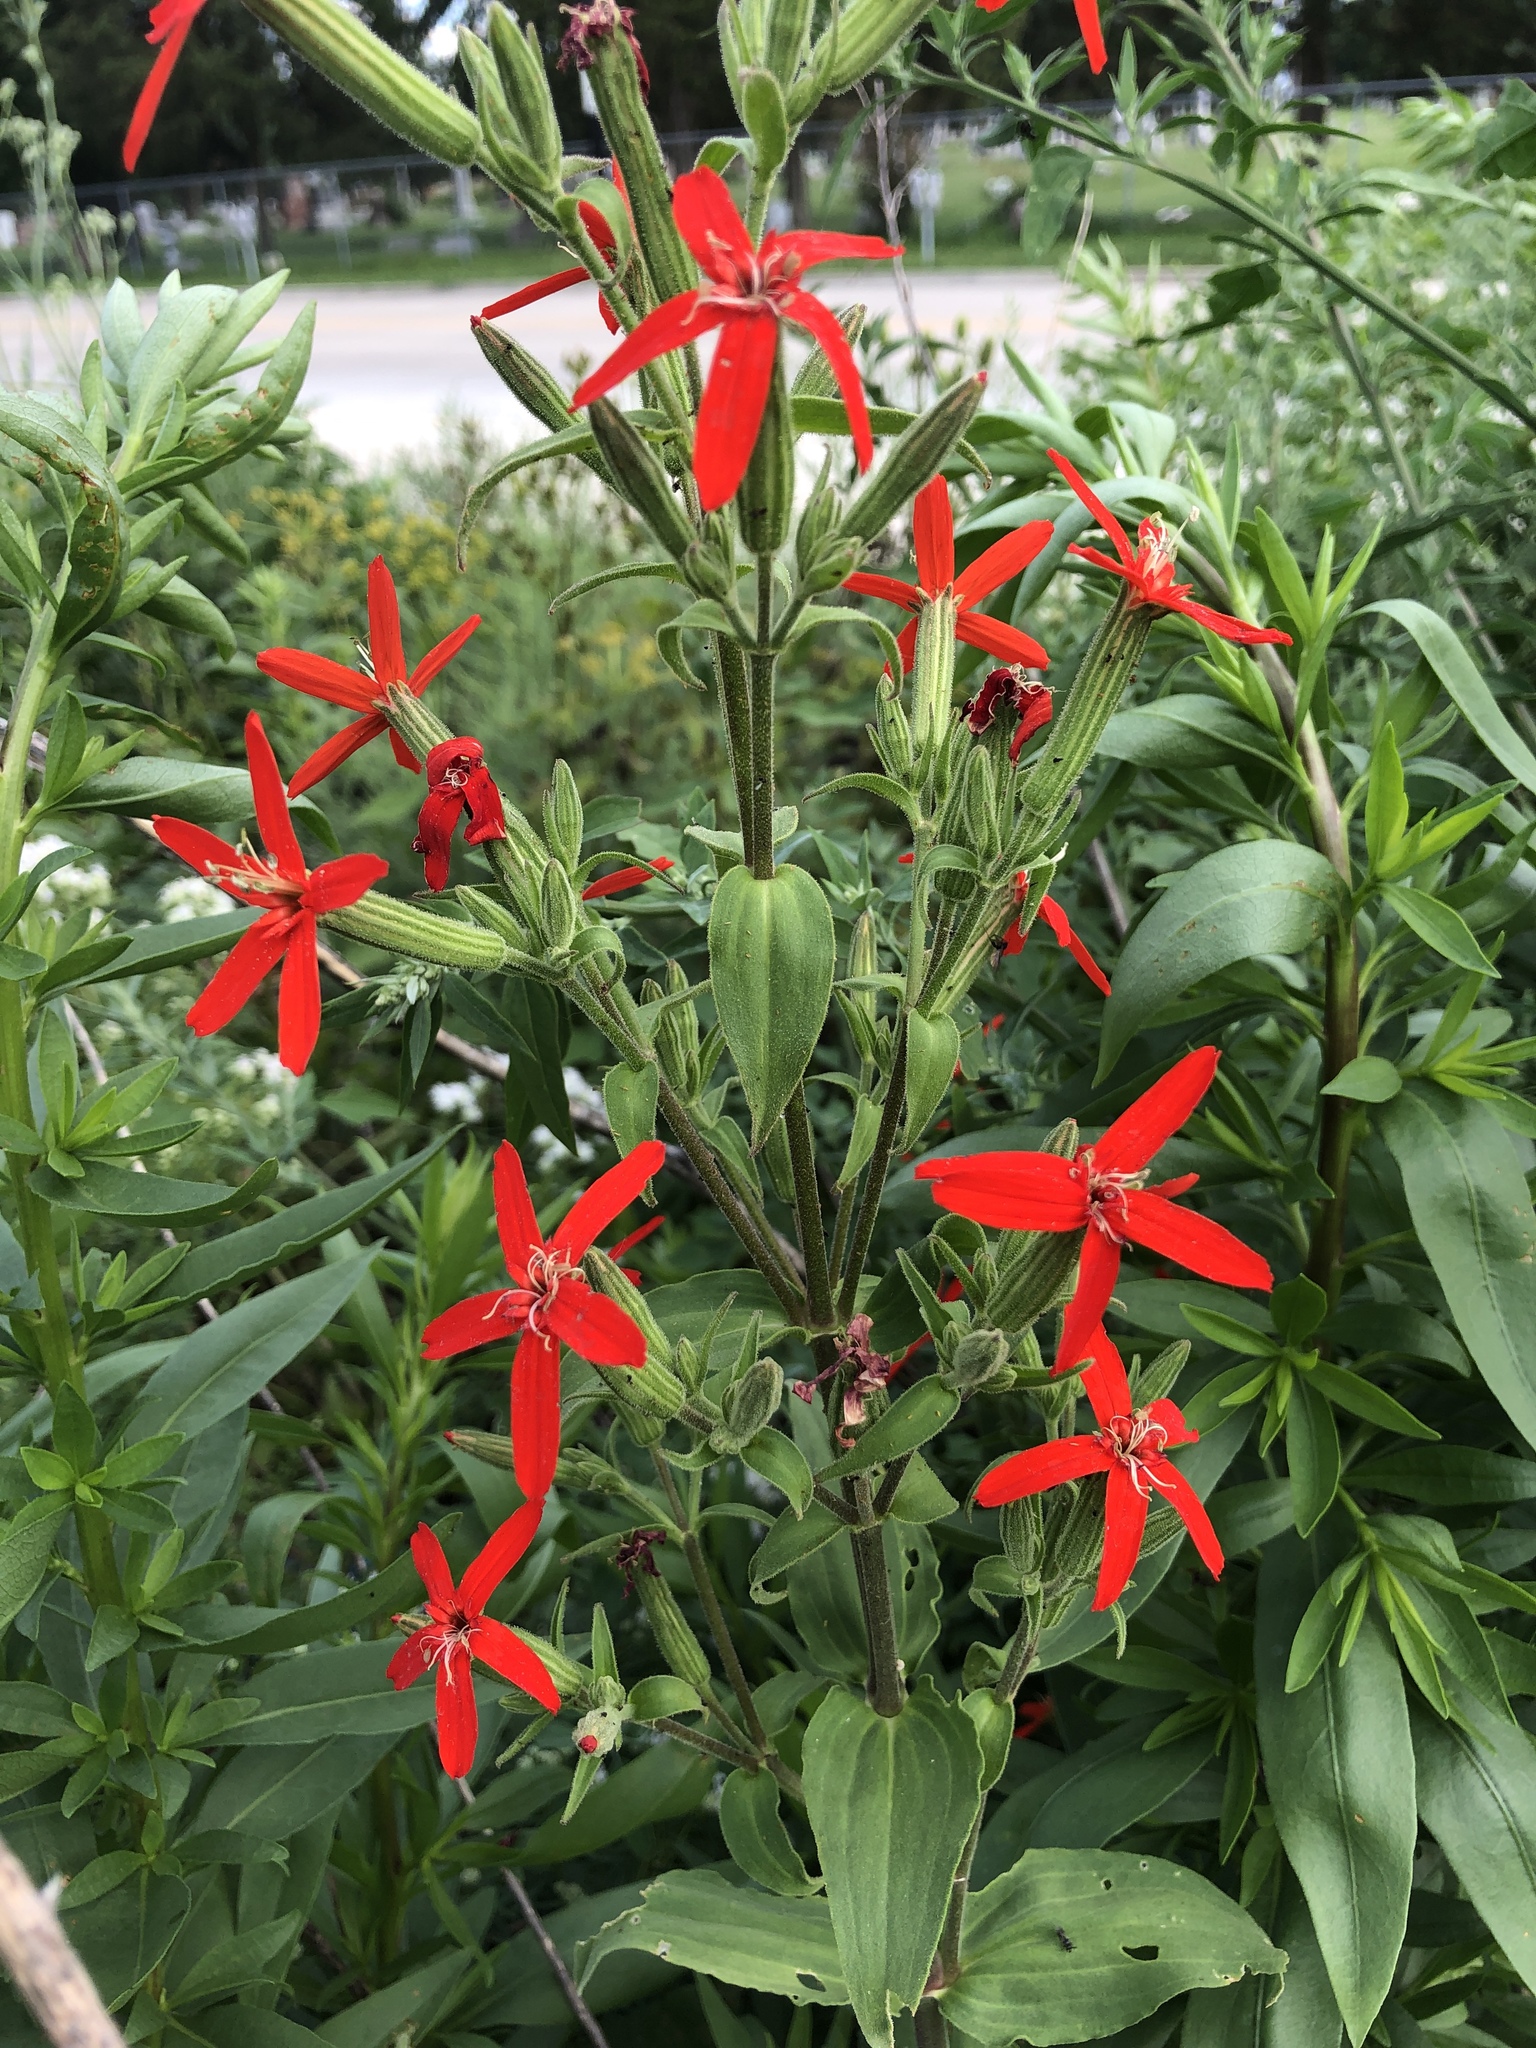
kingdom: Plantae
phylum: Tracheophyta
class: Magnoliopsida
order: Caryophyllales
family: Caryophyllaceae
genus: Silene
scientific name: Silene regia
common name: Royal catchfly
